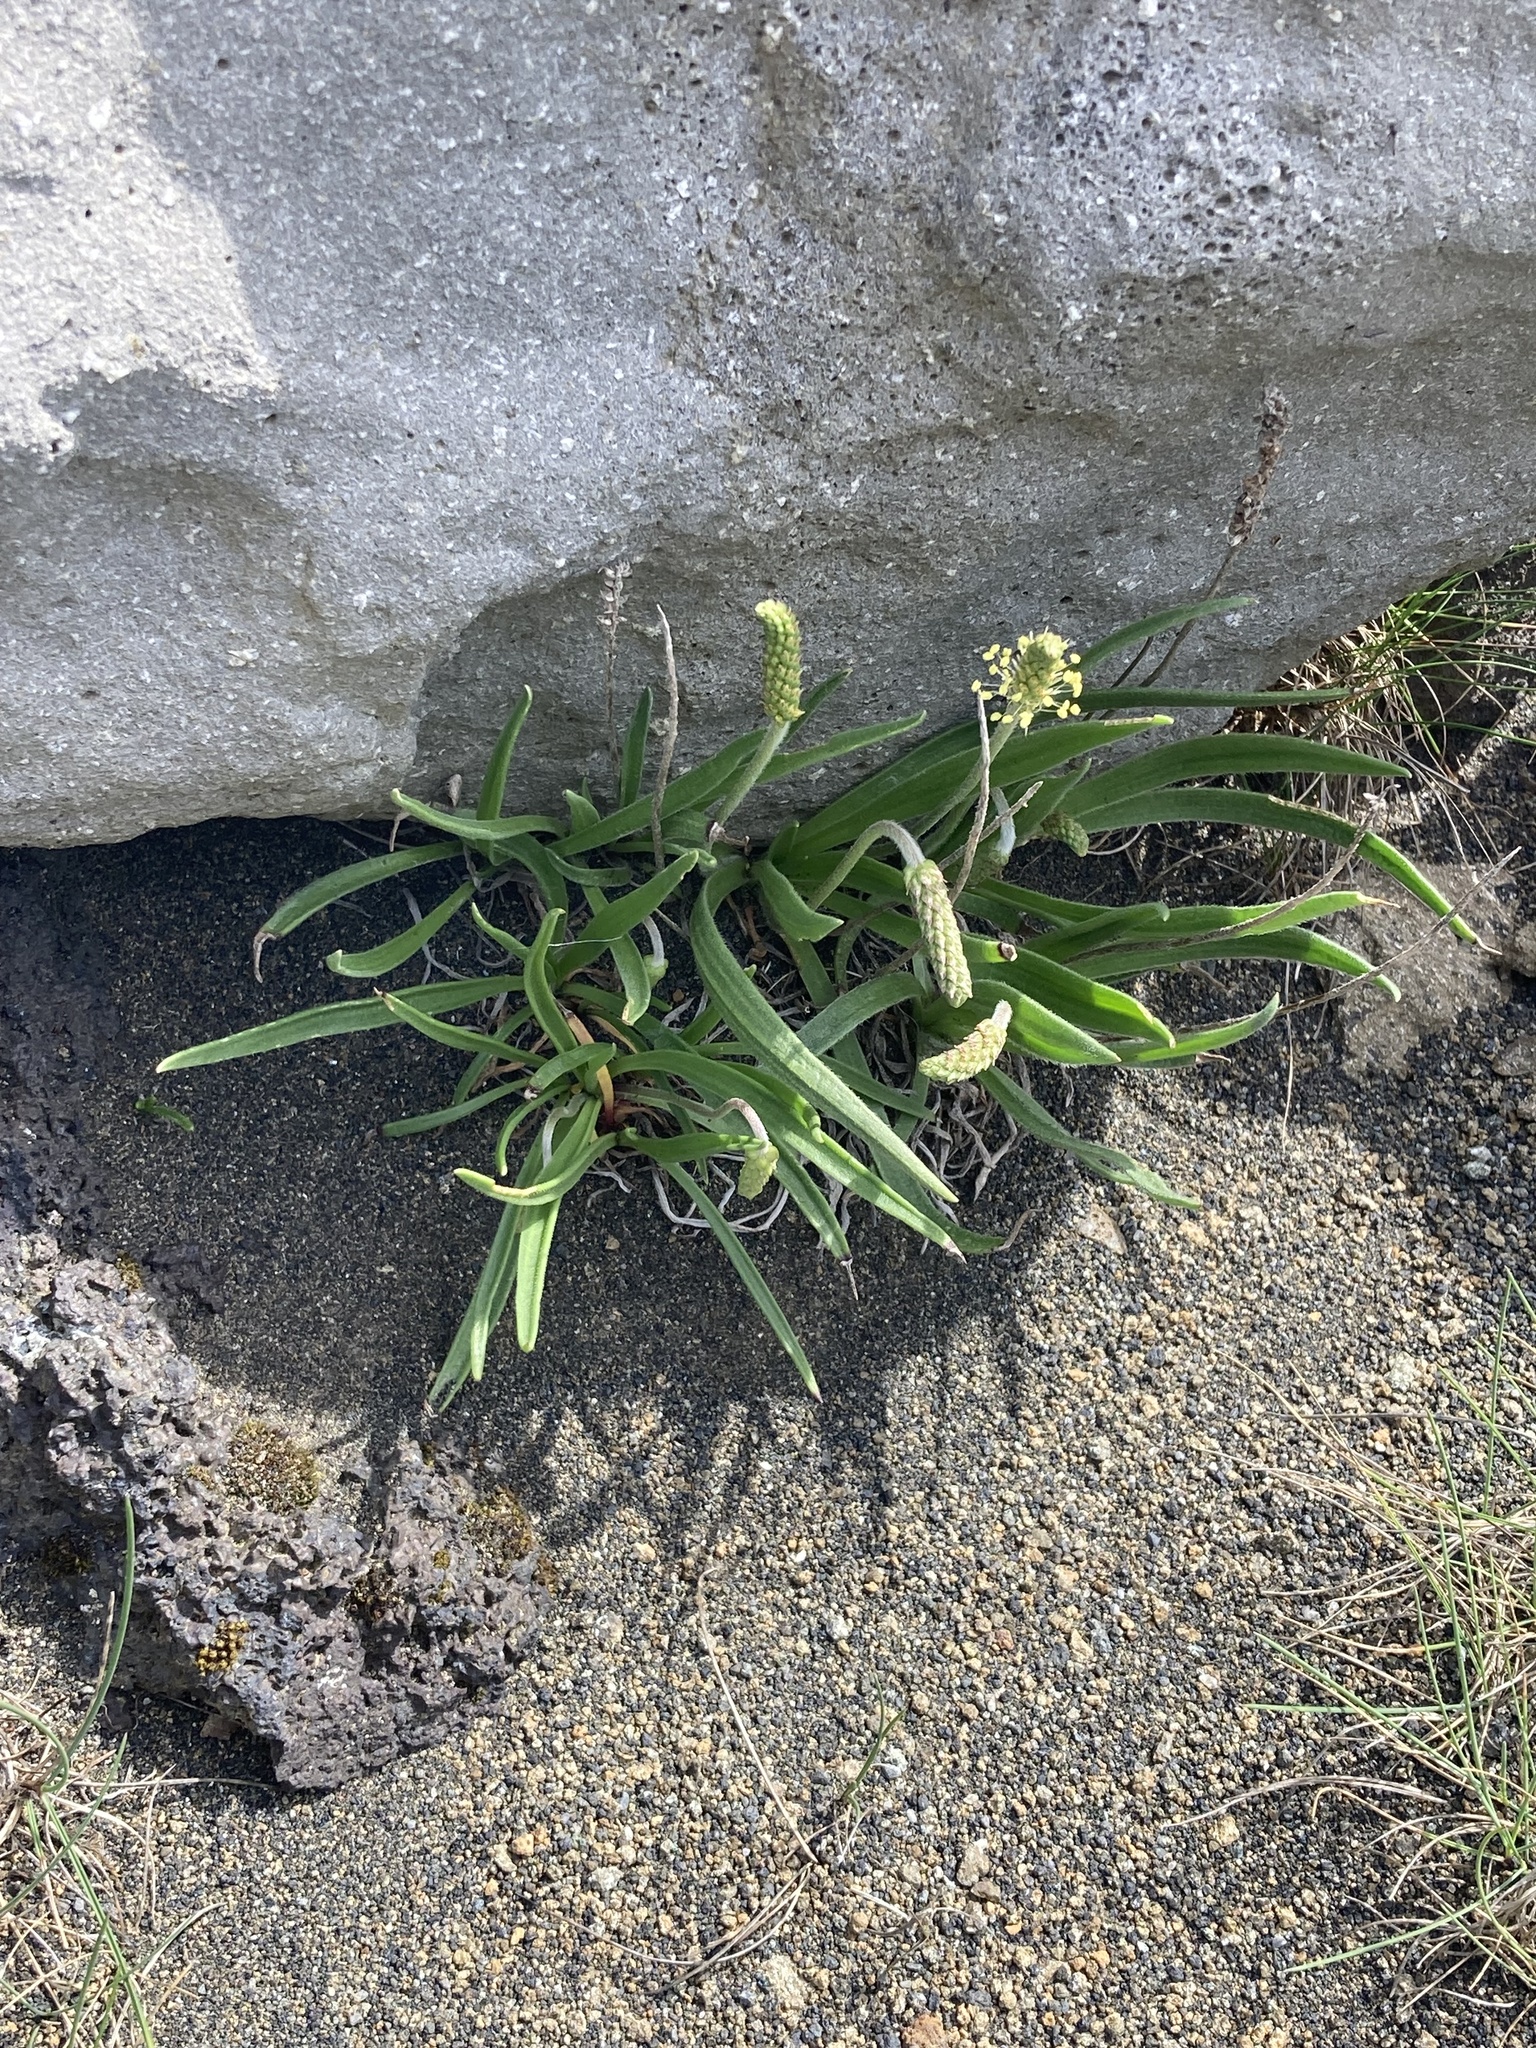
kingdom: Plantae
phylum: Tracheophyta
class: Magnoliopsida
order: Lamiales
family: Plantaginaceae
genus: Plantago
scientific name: Plantago maritima
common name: Sea plantain
